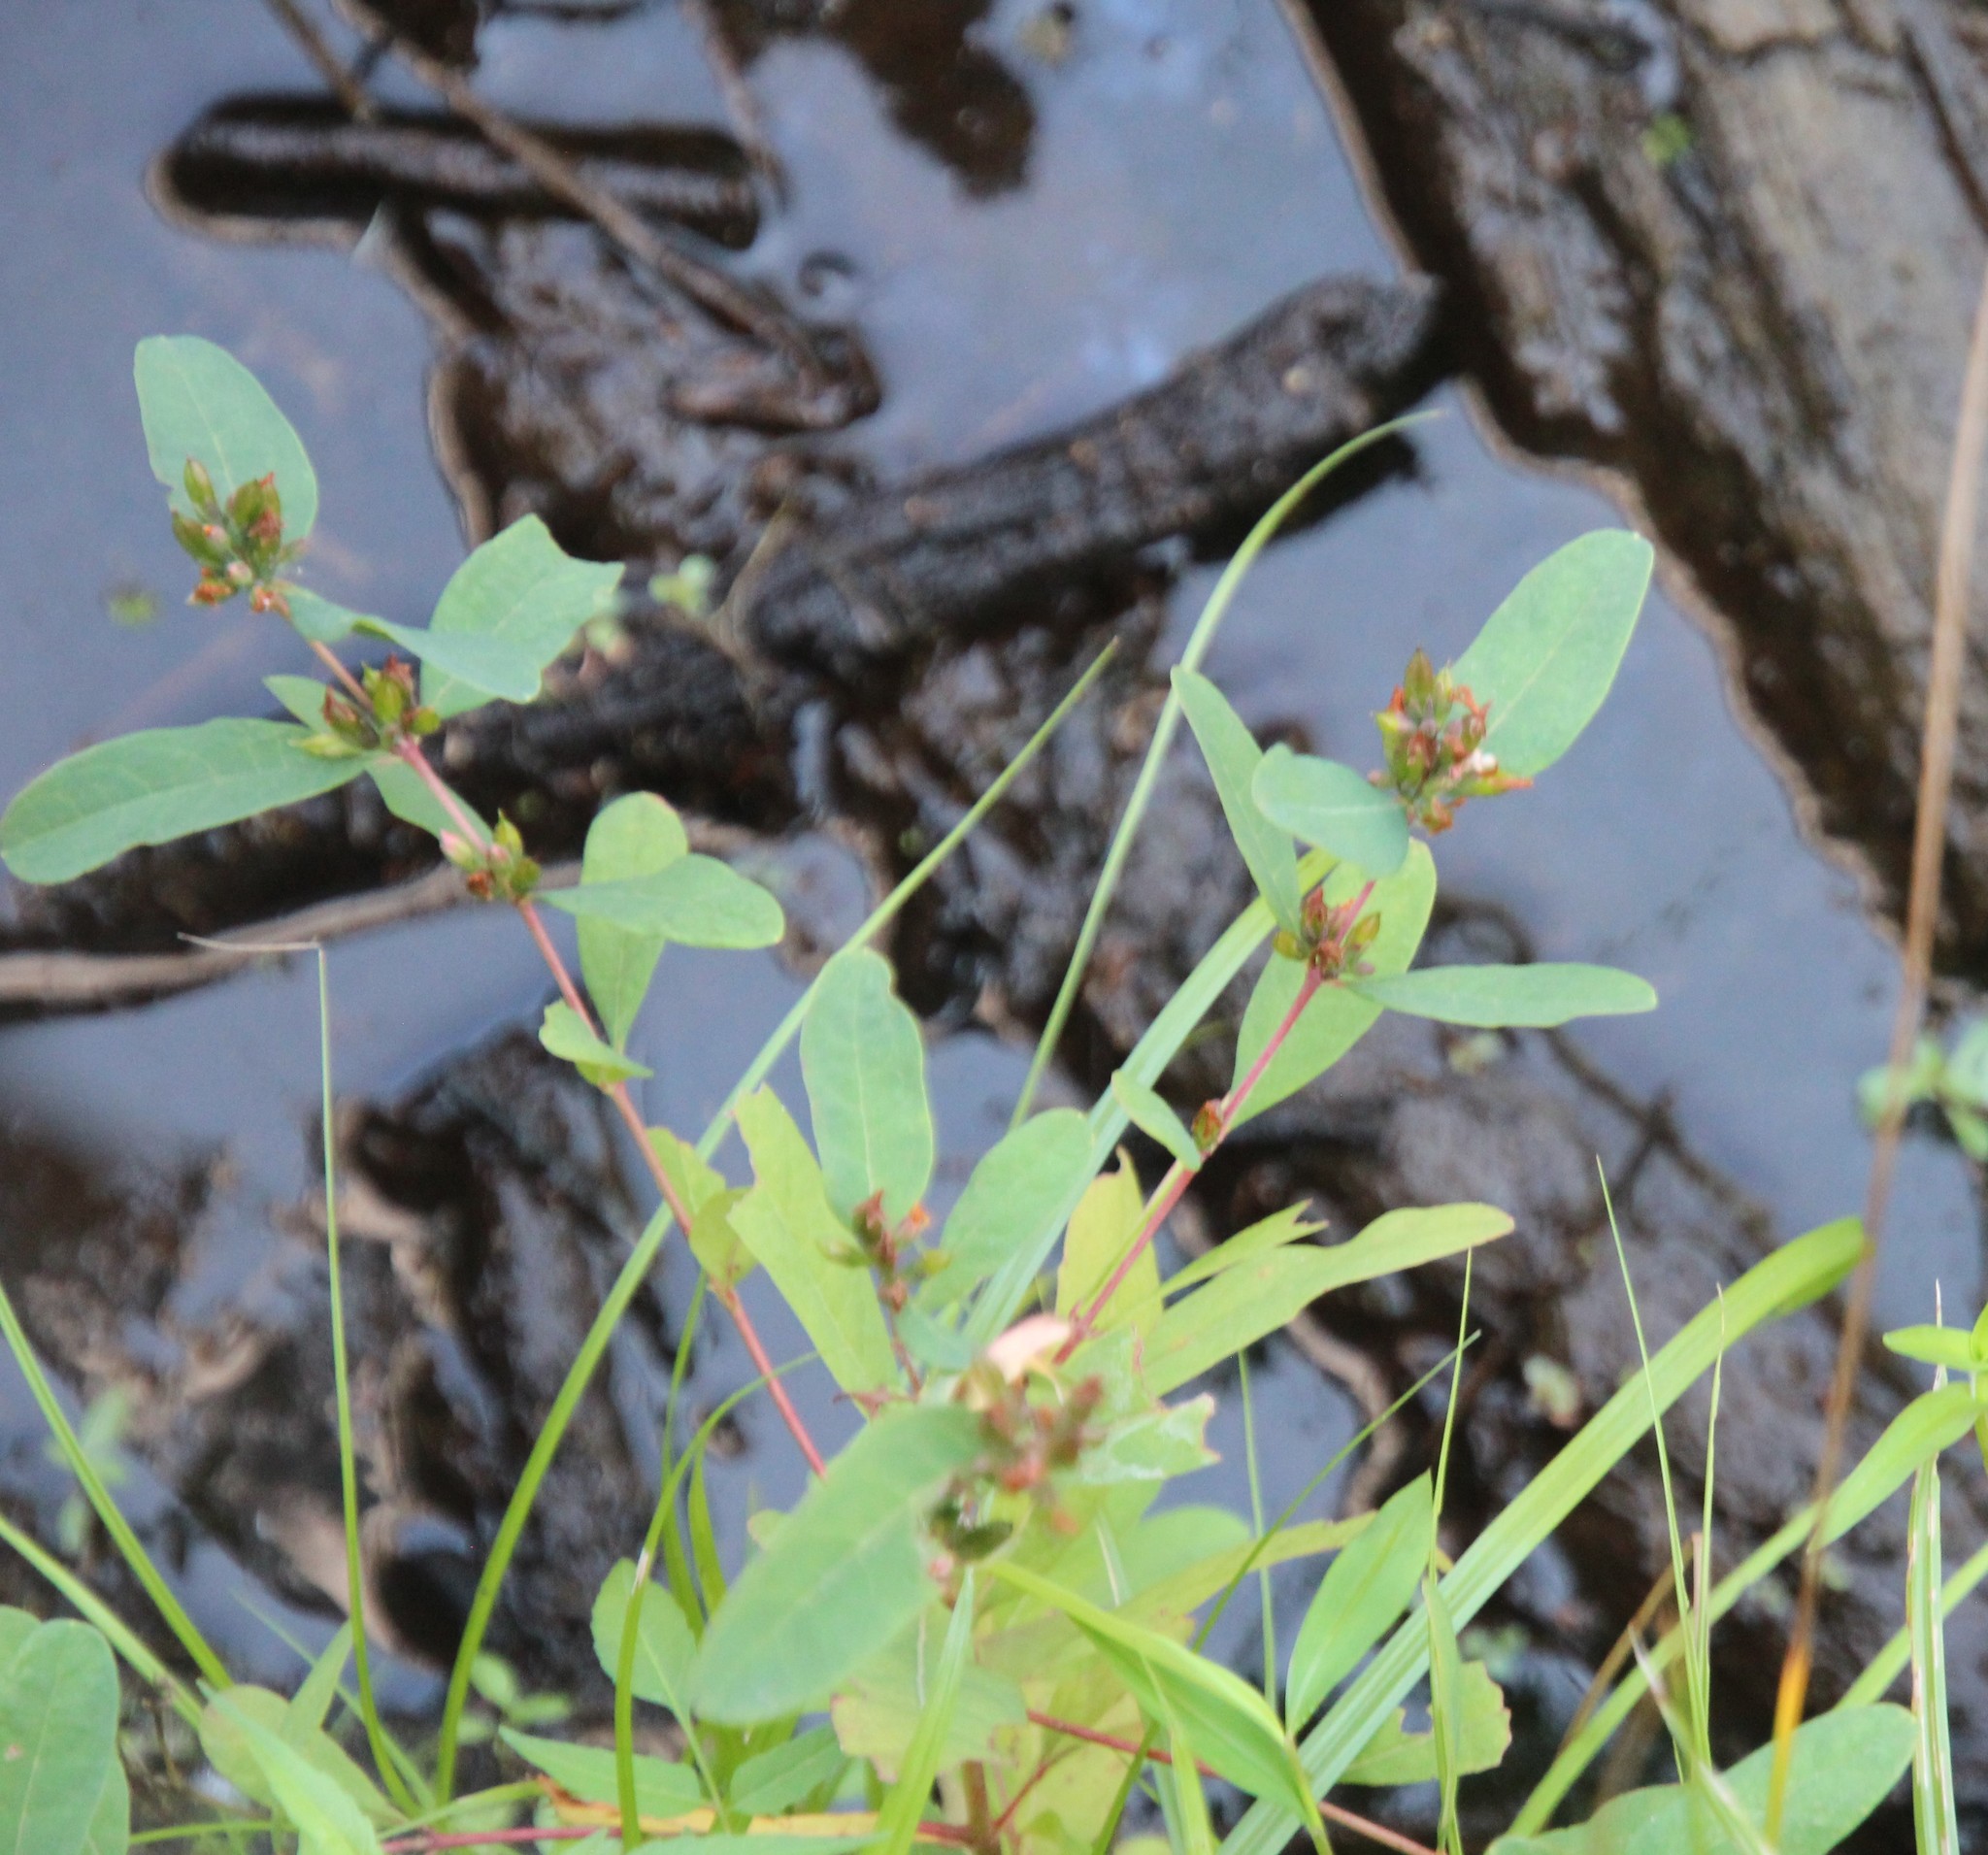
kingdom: Plantae
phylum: Tracheophyta
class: Magnoliopsida
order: Malpighiales
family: Hypericaceae
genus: Triadenum
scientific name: Triadenum walteri
